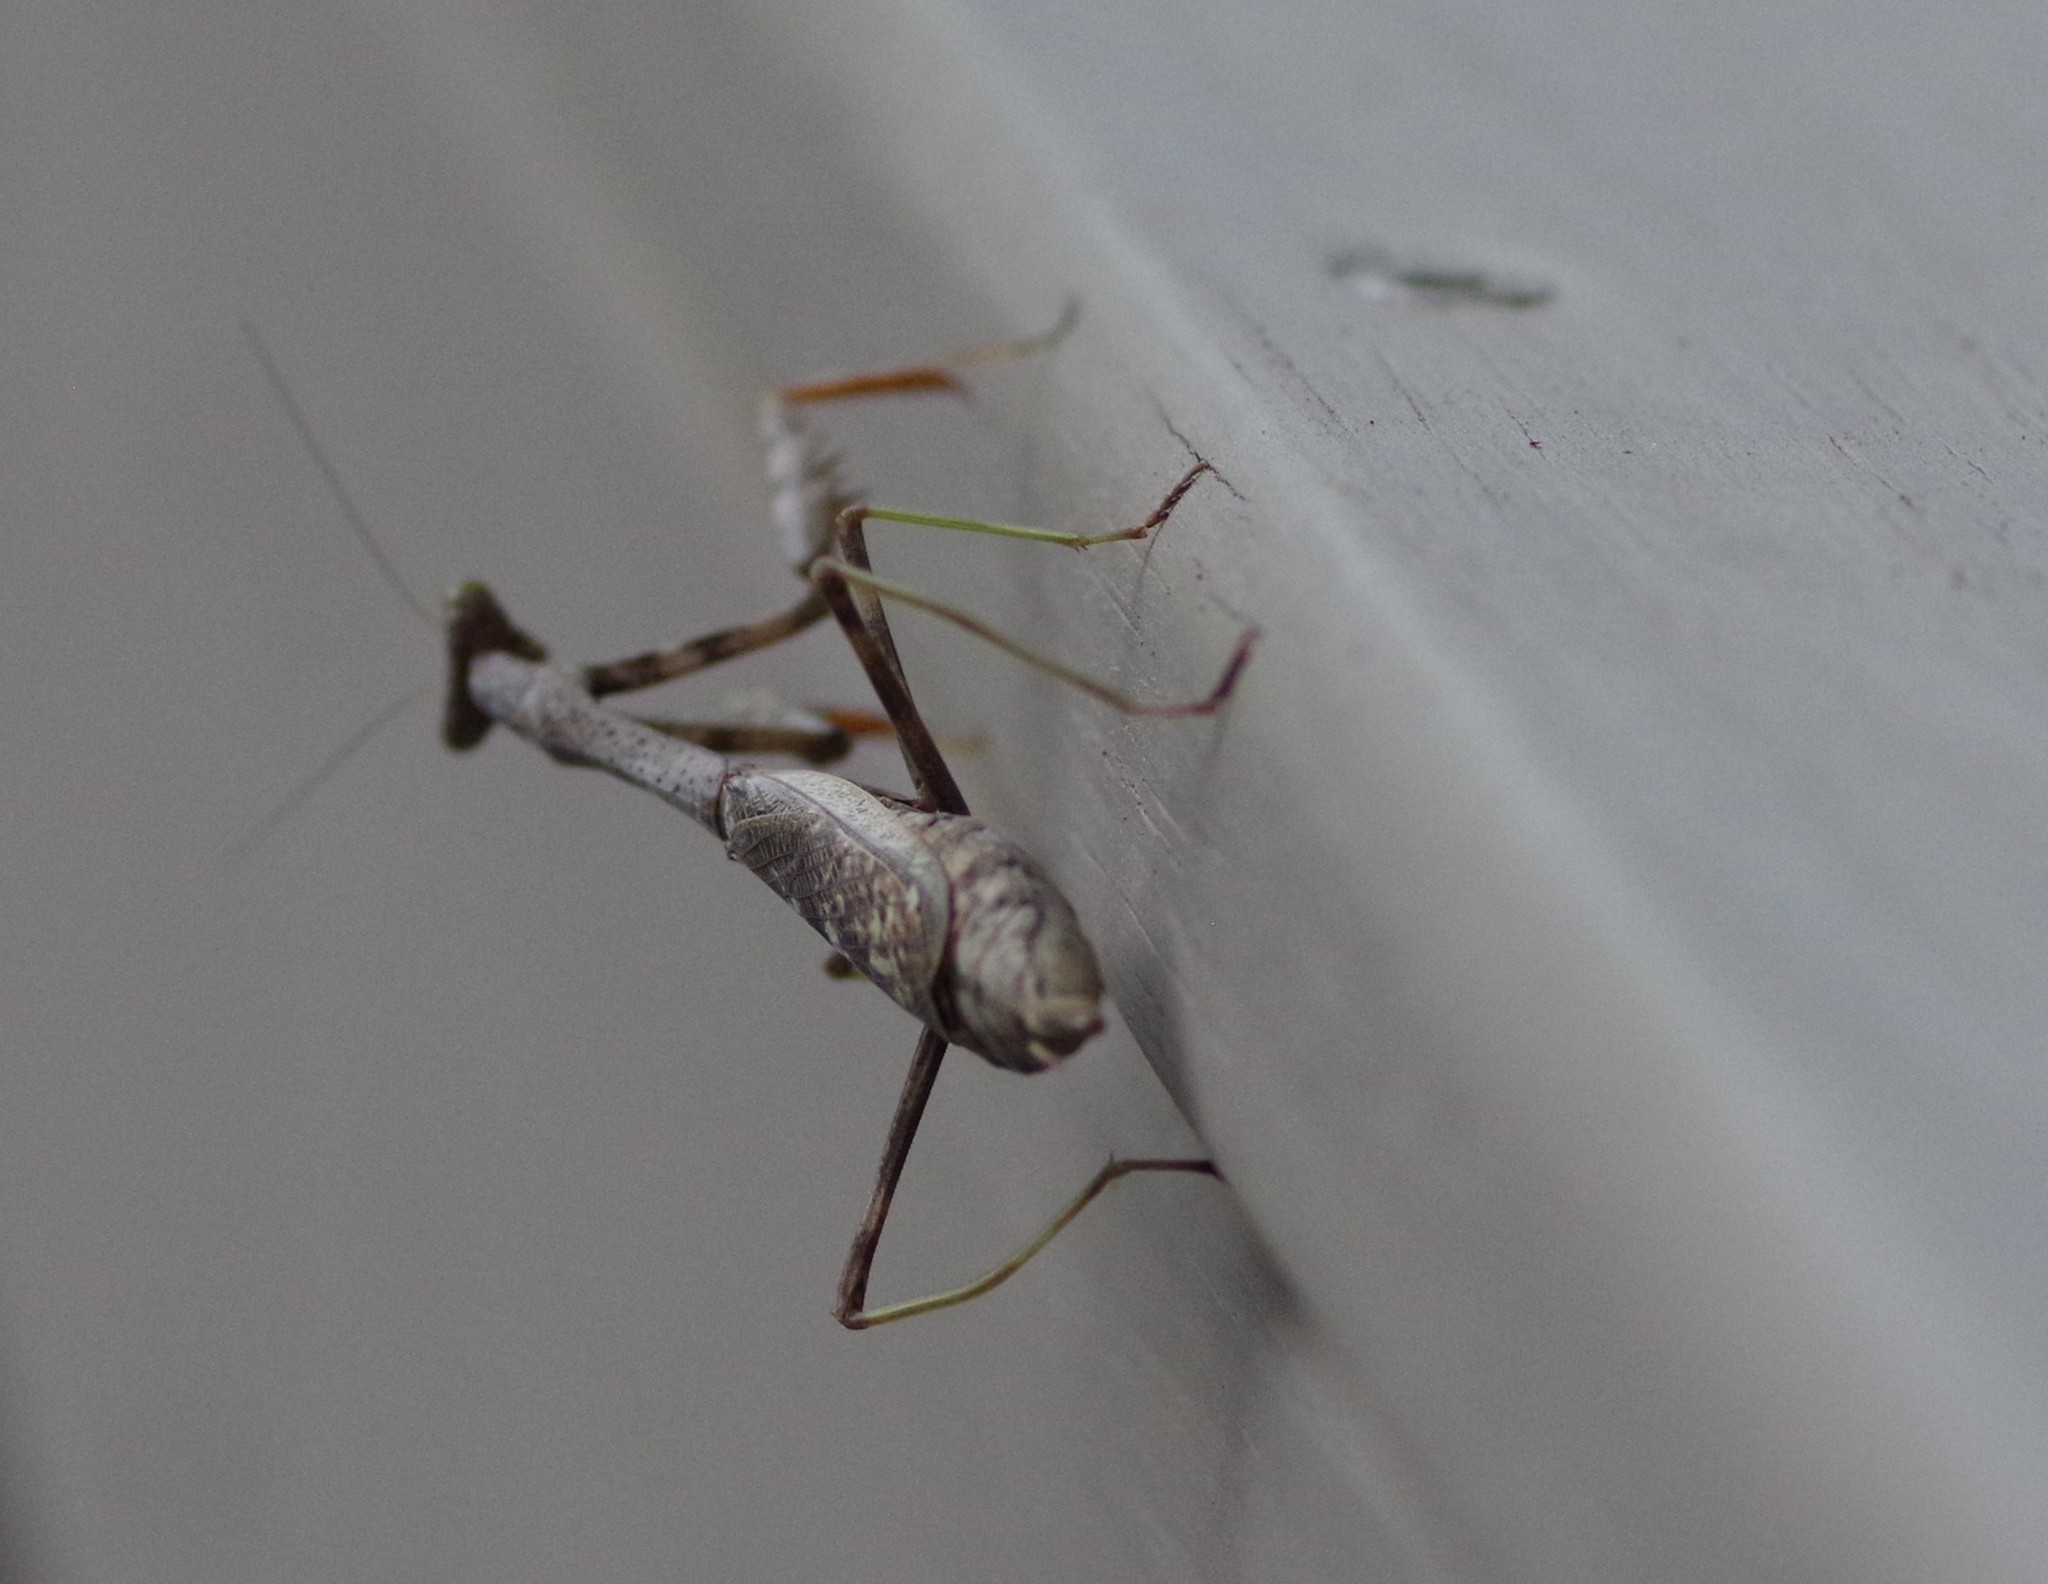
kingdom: Animalia
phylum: Arthropoda
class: Insecta
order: Mantodea
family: Mantidae
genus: Stagmomantis
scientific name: Stagmomantis carolina
